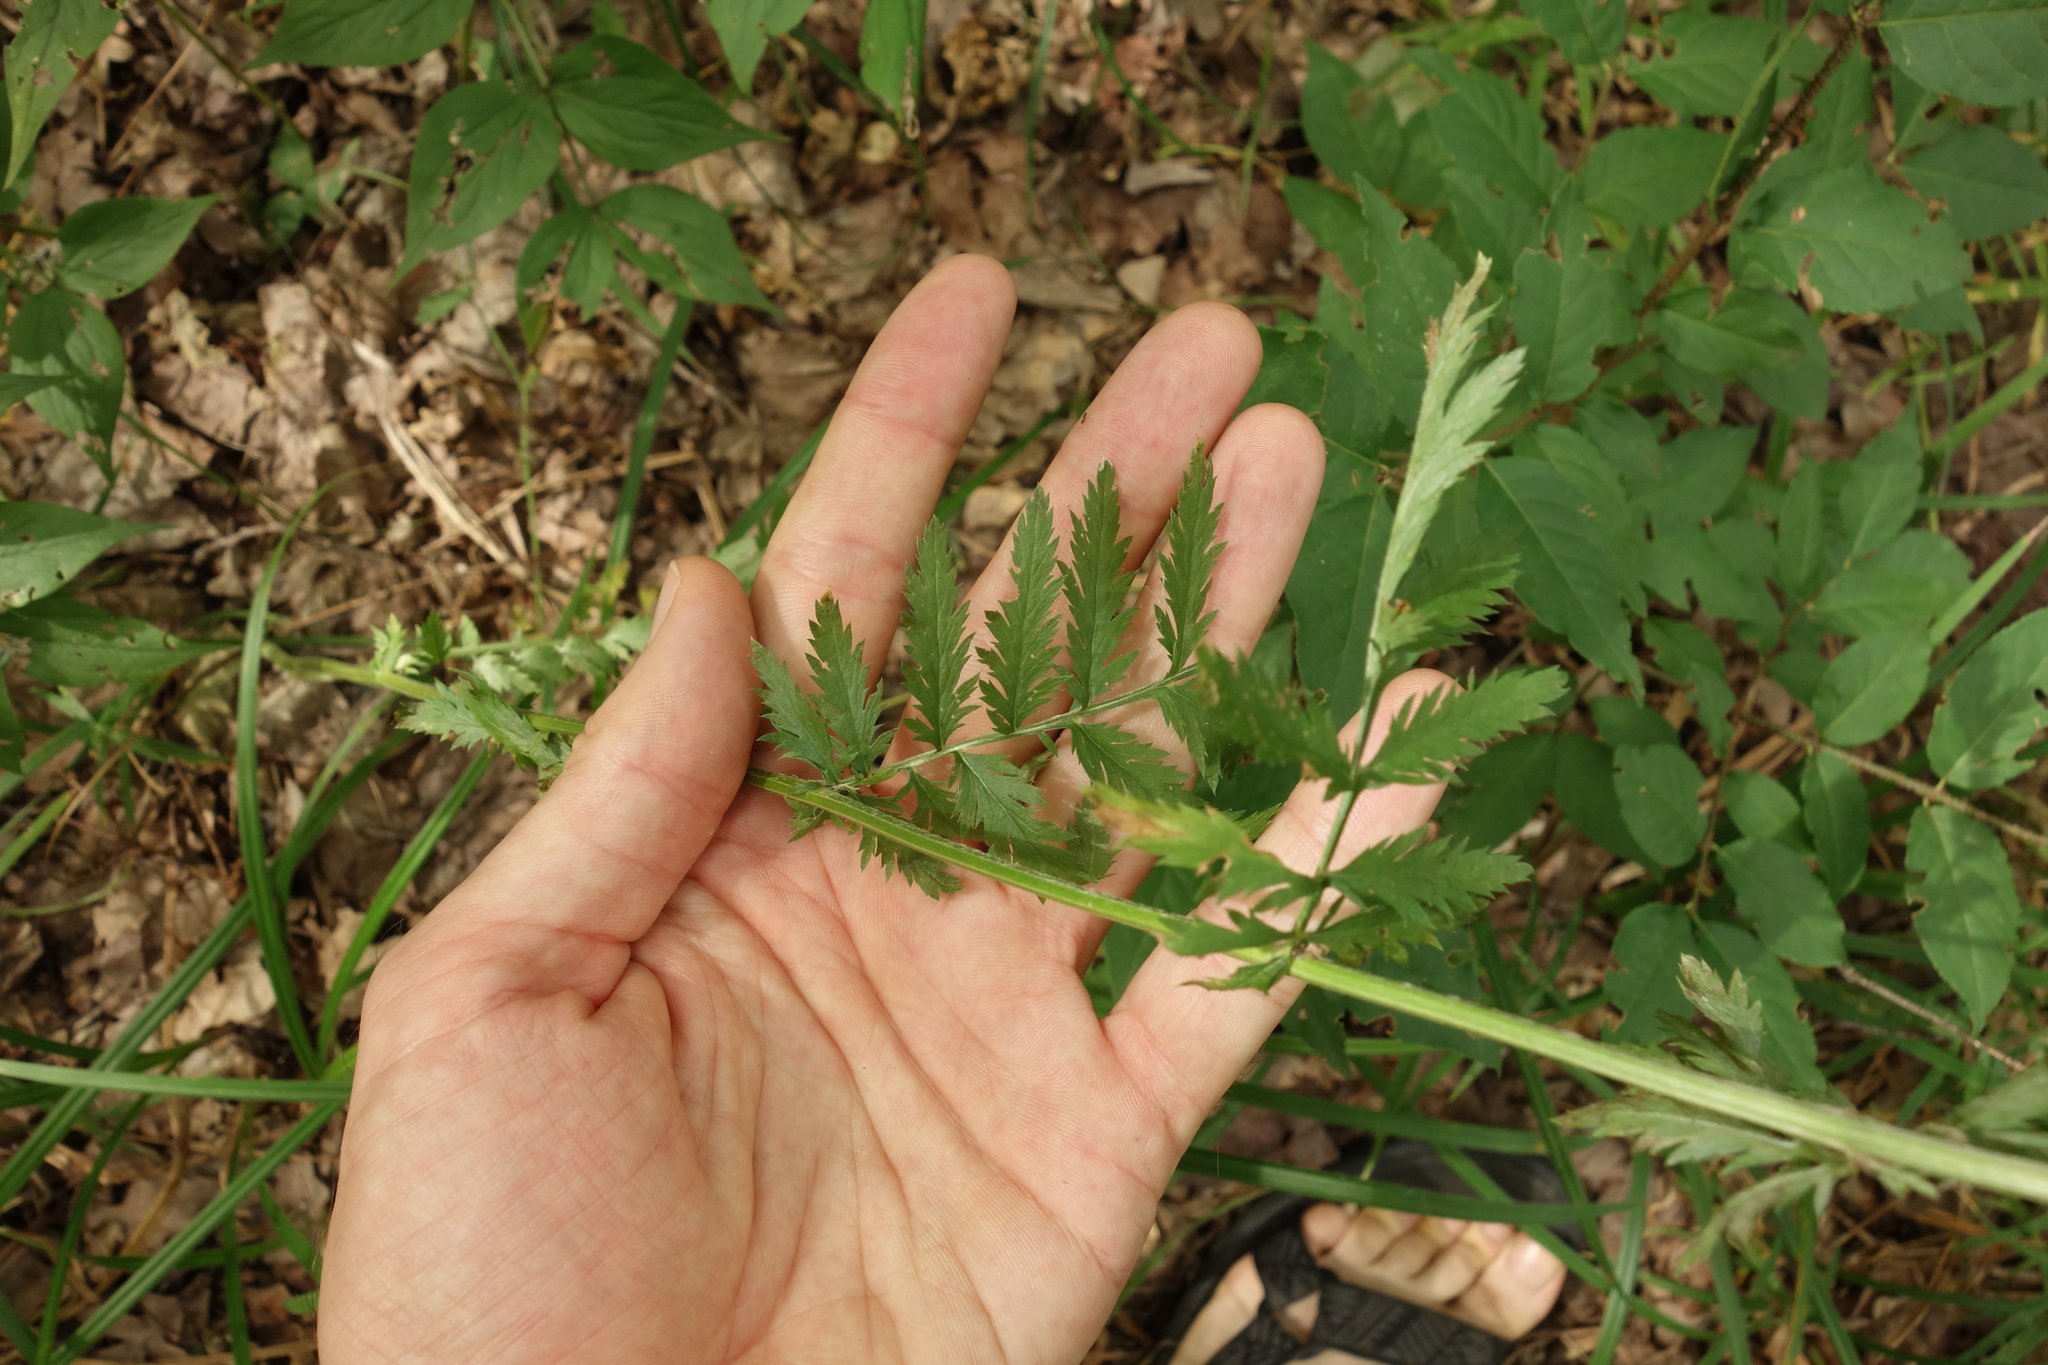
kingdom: Plantae
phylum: Tracheophyta
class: Magnoliopsida
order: Asterales
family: Asteraceae
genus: Tanacetum
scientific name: Tanacetum corymbosum
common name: Scentless feverfew
